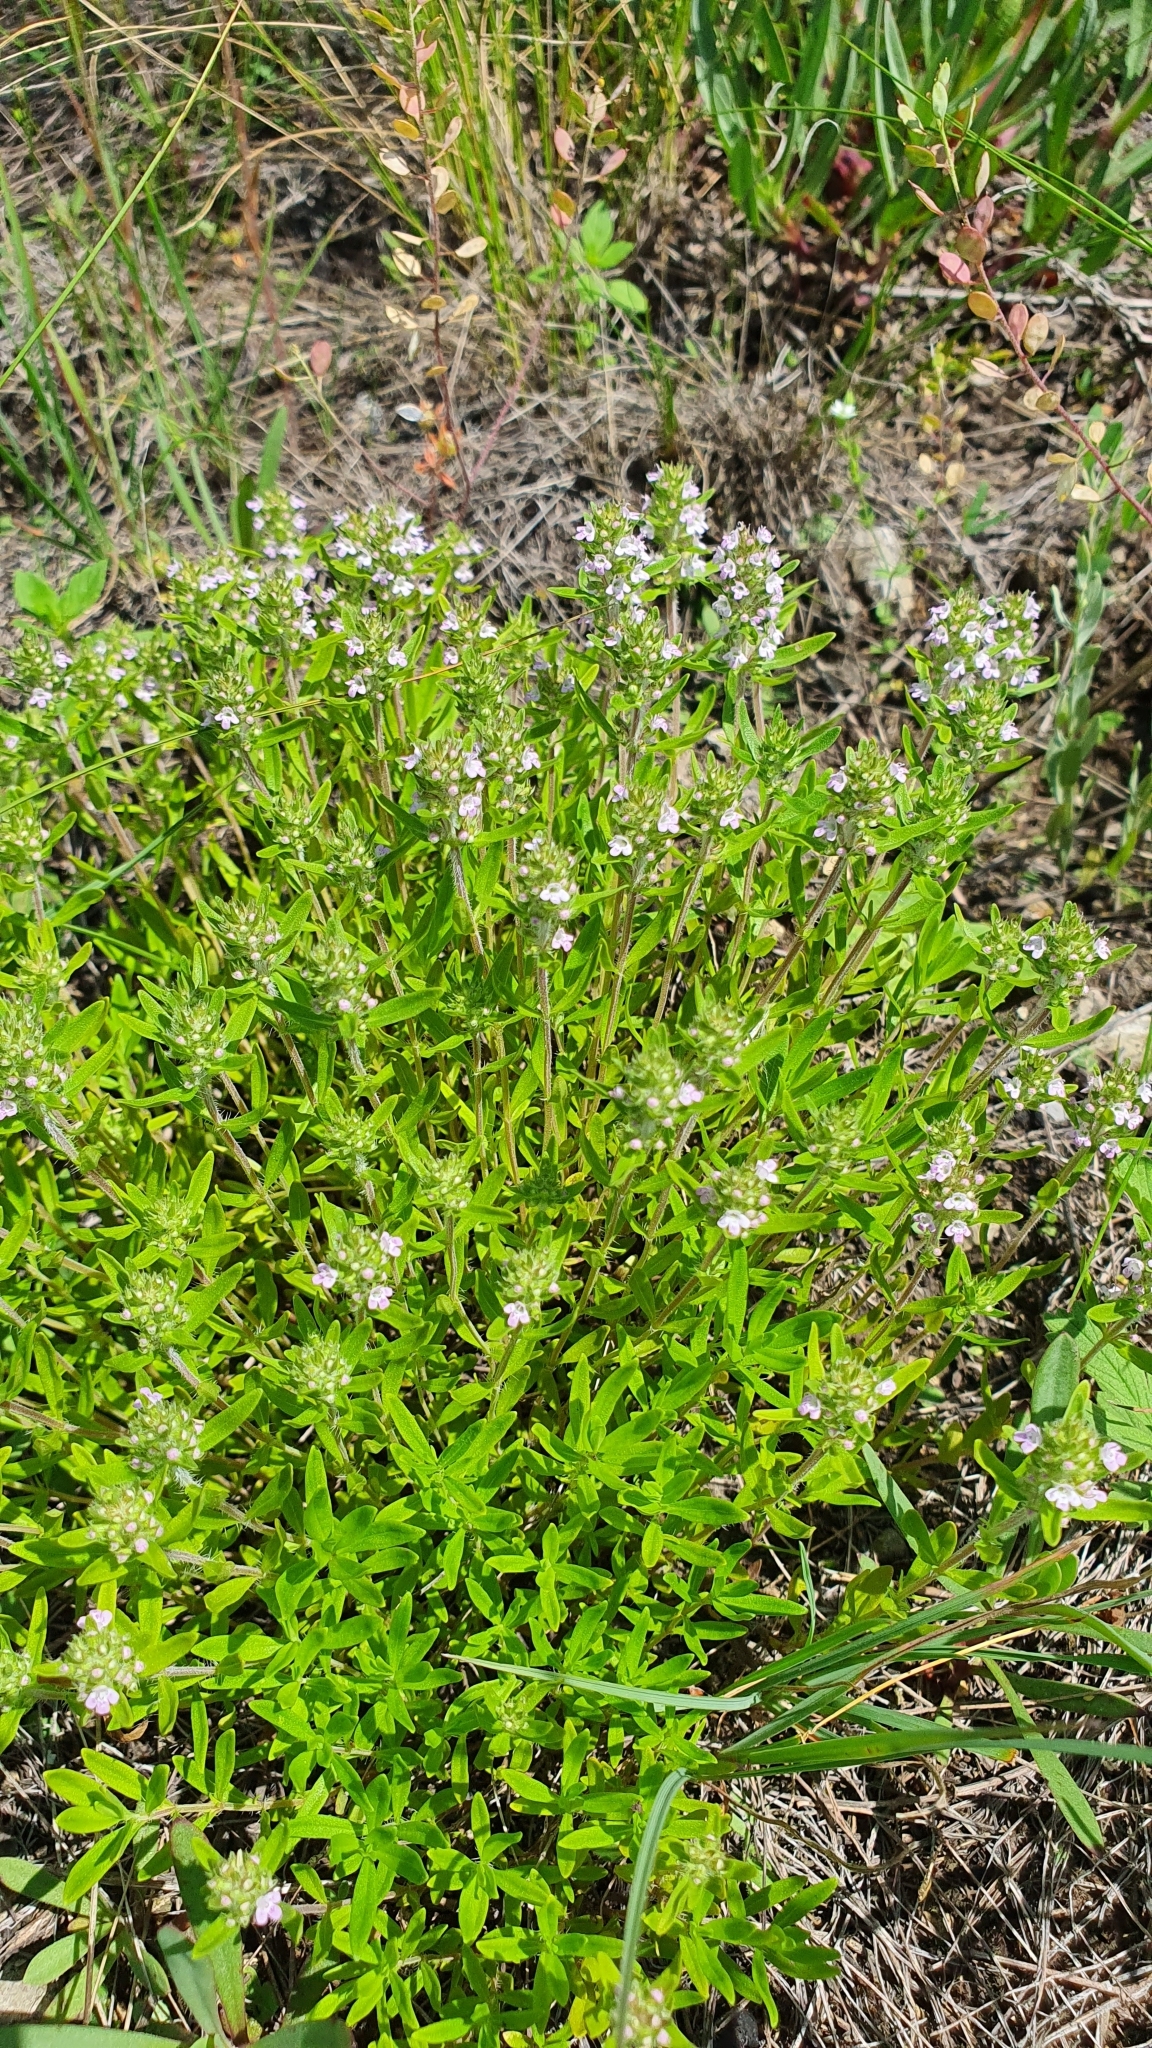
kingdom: Plantae
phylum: Tracheophyta
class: Magnoliopsida
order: Lamiales
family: Lamiaceae
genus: Thymus
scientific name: Thymus pannonicus
